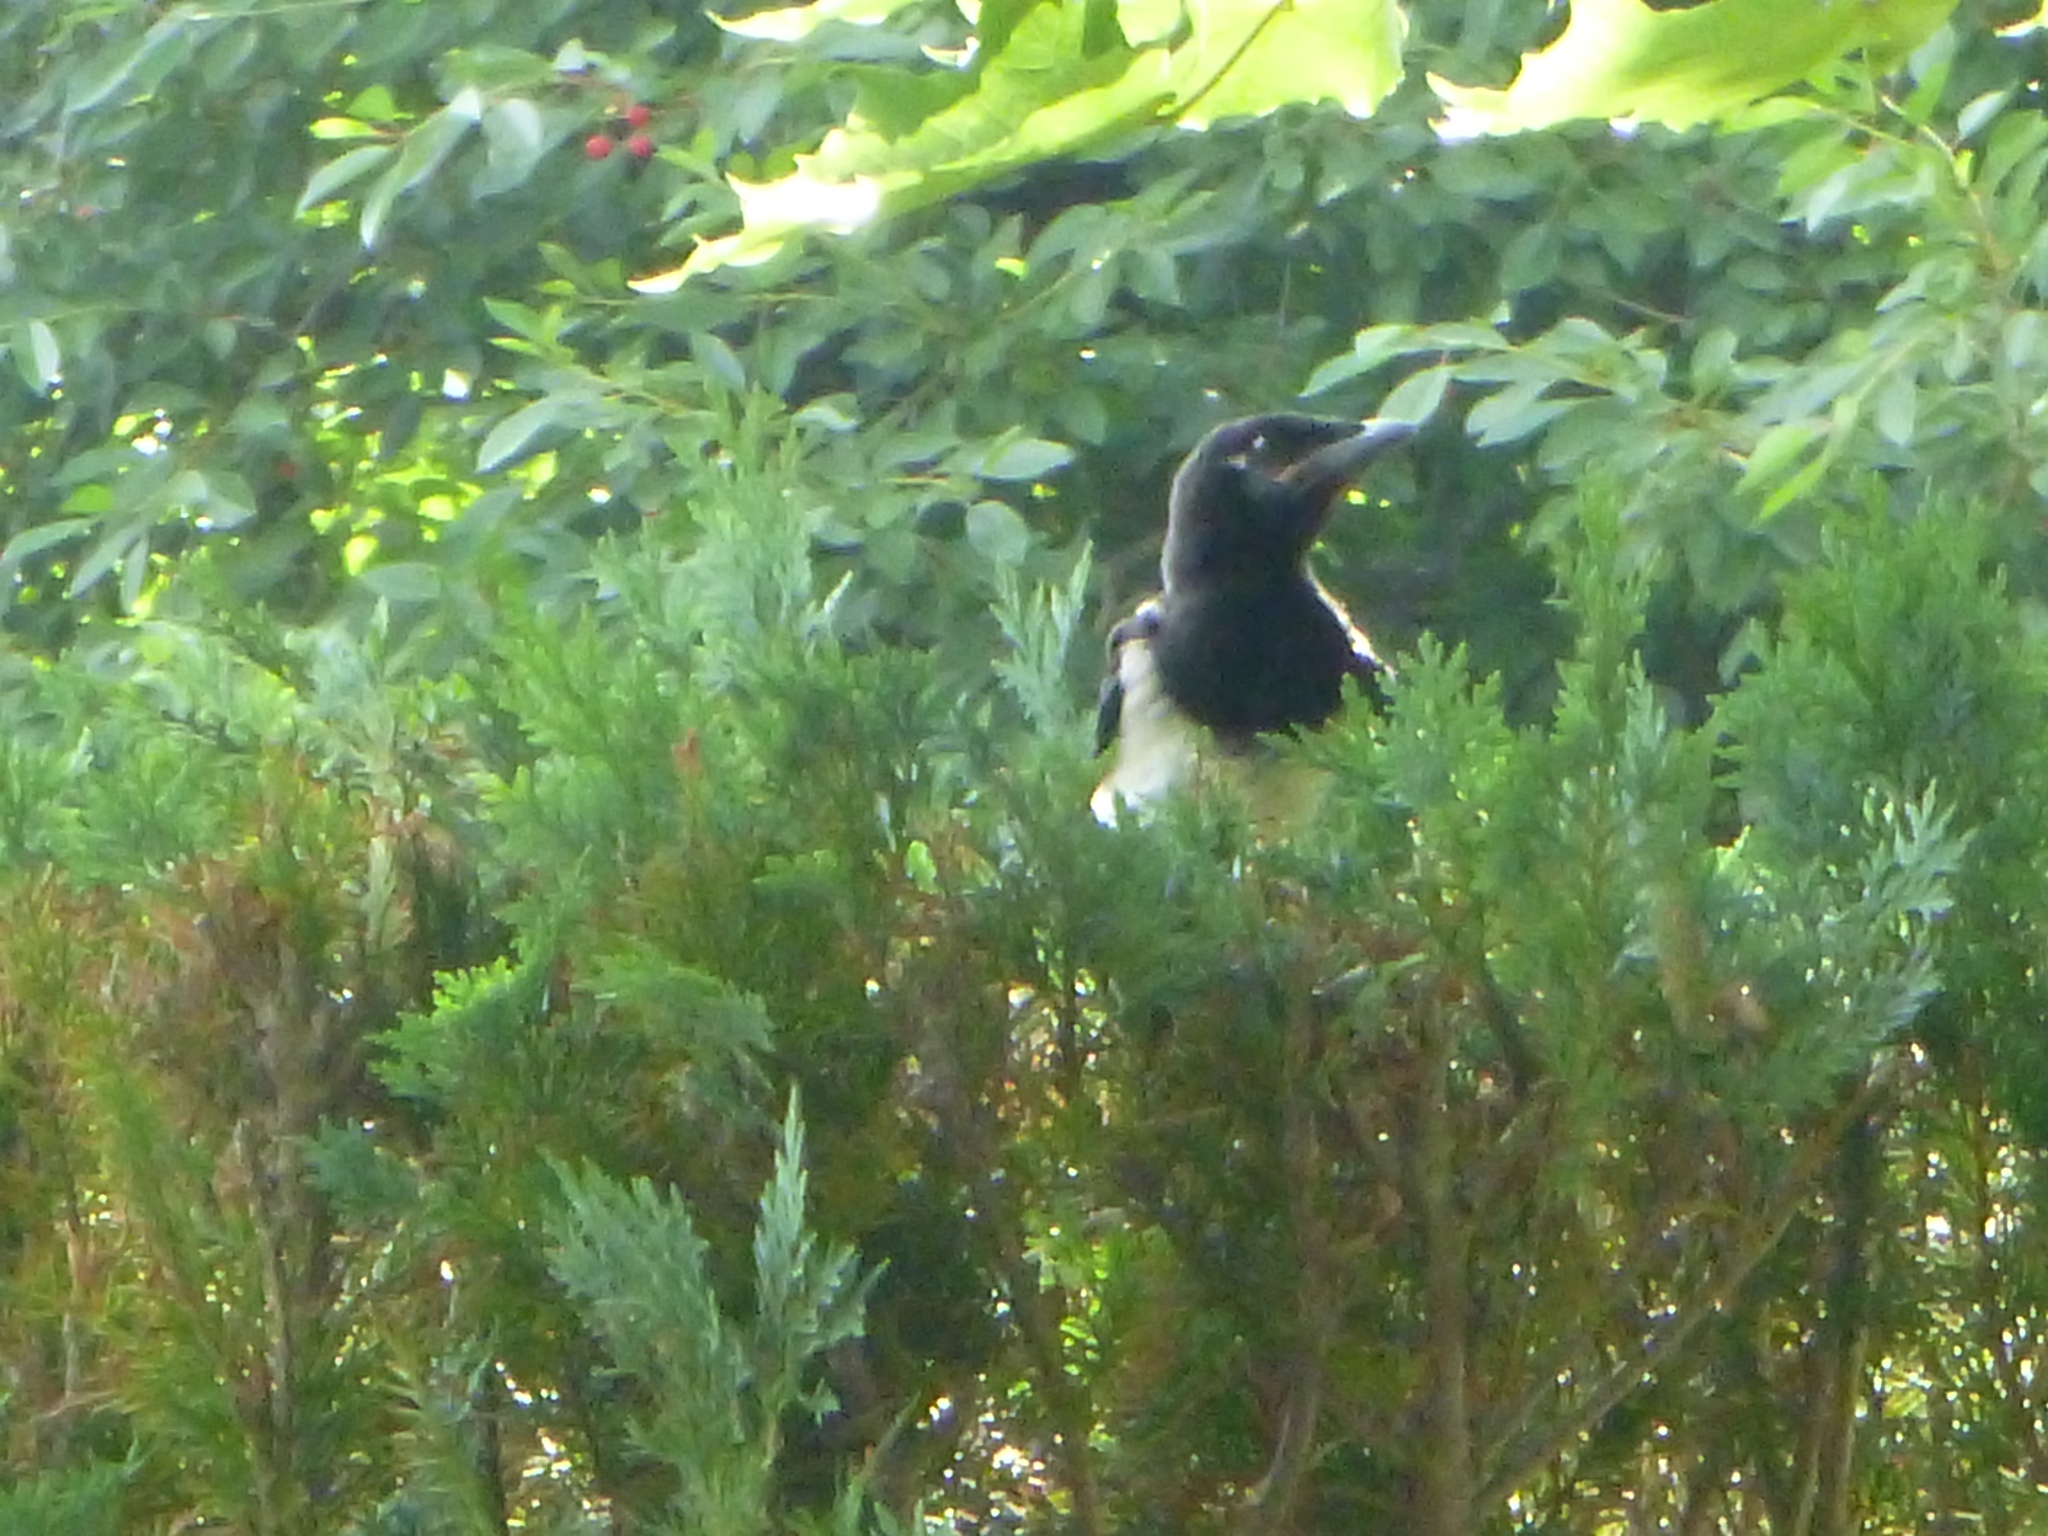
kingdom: Animalia
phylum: Chordata
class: Aves
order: Passeriformes
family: Corvidae
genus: Pica
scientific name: Pica pica
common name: Eurasian magpie
